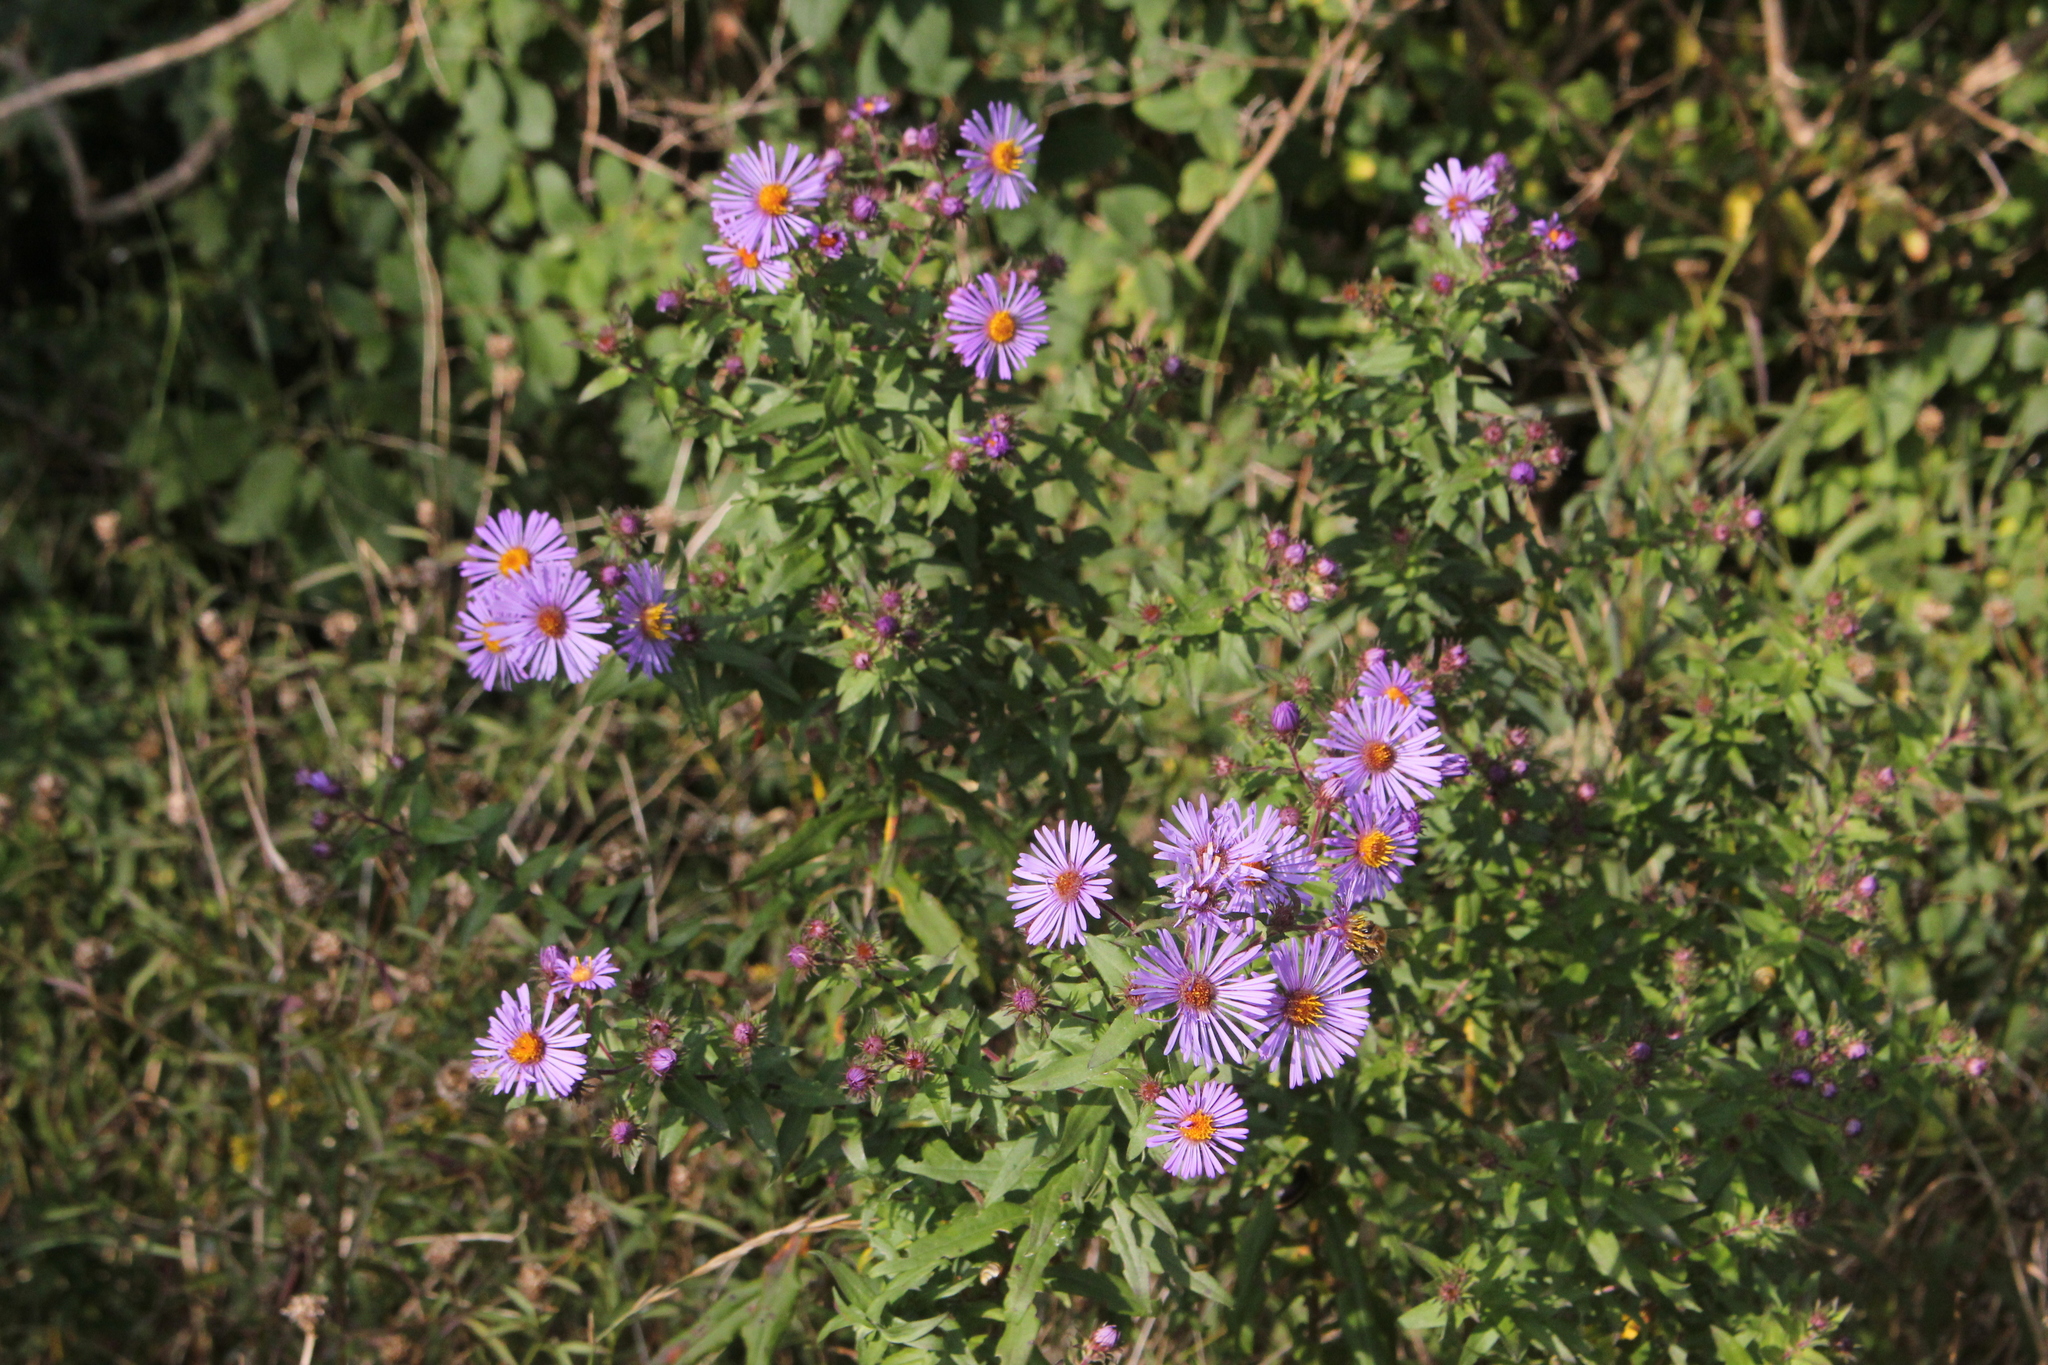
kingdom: Plantae
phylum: Tracheophyta
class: Magnoliopsida
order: Asterales
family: Asteraceae
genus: Symphyotrichum
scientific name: Symphyotrichum novae-angliae
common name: Michaelmas daisy
